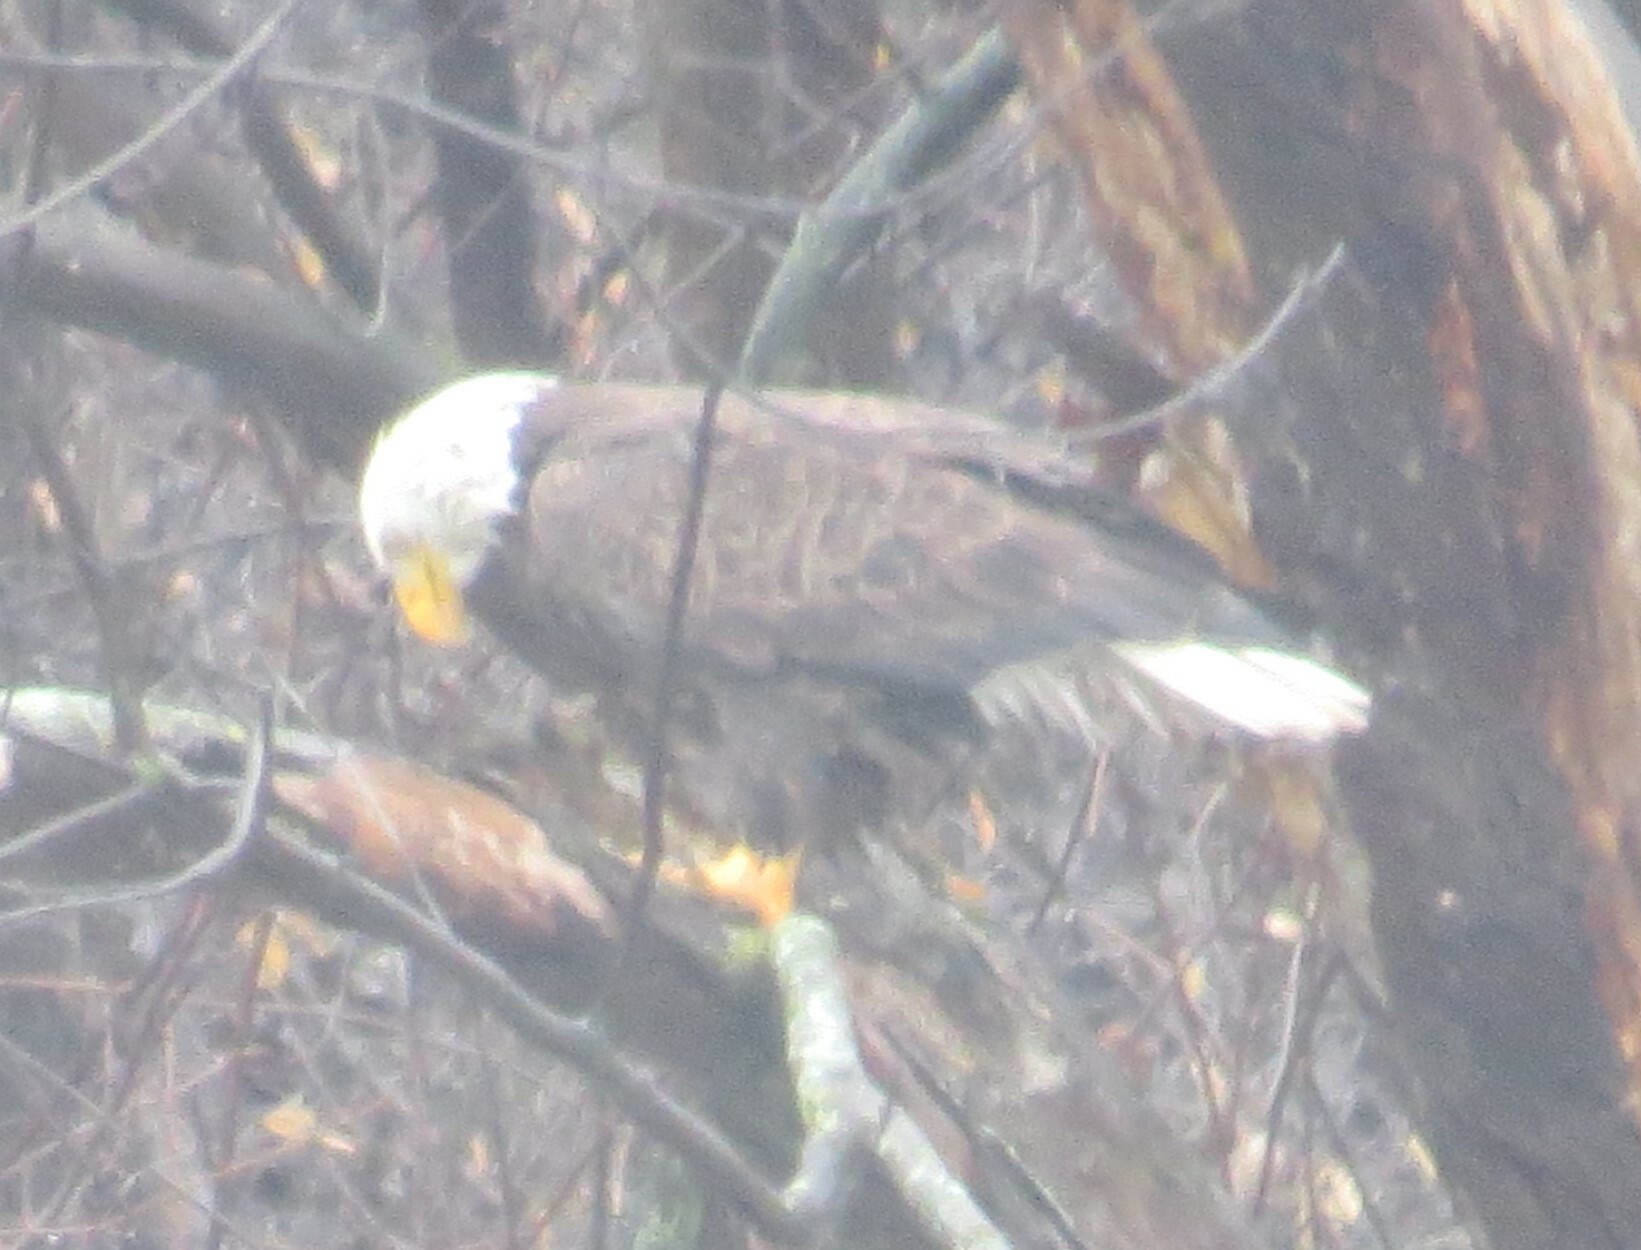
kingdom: Animalia
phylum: Chordata
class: Aves
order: Accipitriformes
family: Accipitridae
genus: Haliaeetus
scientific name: Haliaeetus leucocephalus
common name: Bald eagle
